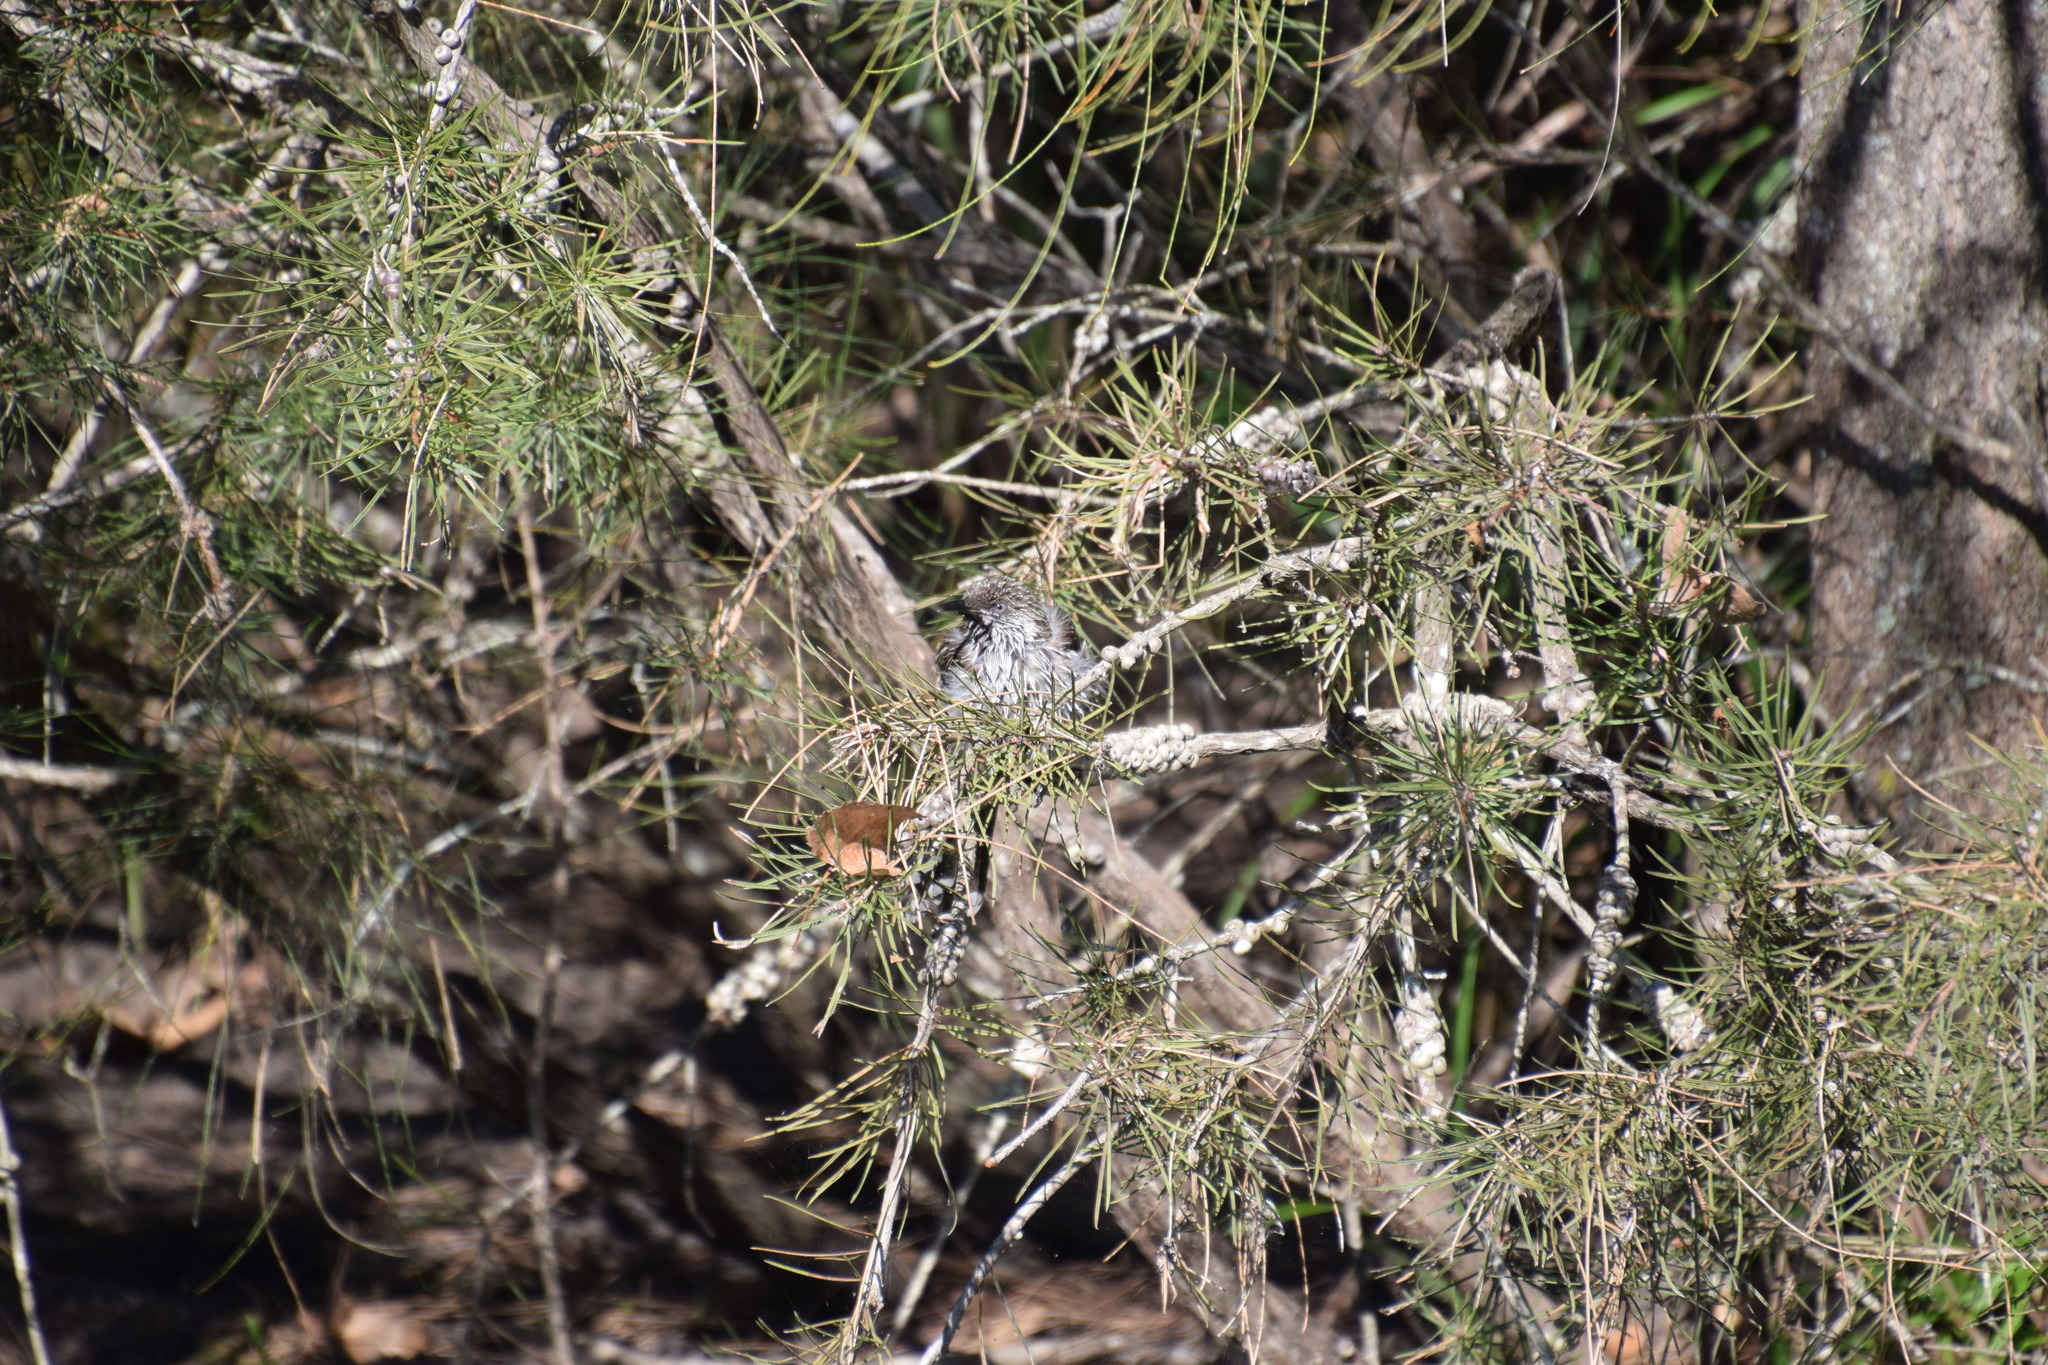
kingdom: Animalia
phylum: Chordata
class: Aves
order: Passeriformes
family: Meliphagidae
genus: Anthochaera
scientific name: Anthochaera chrysoptera
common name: Little wattlebird
